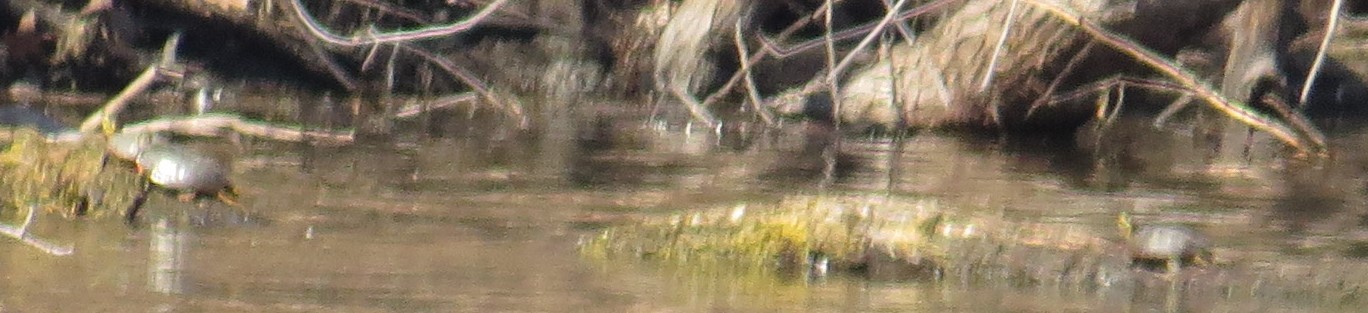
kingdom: Animalia
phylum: Chordata
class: Testudines
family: Emydidae
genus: Chrysemys
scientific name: Chrysemys picta
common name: Painted turtle
